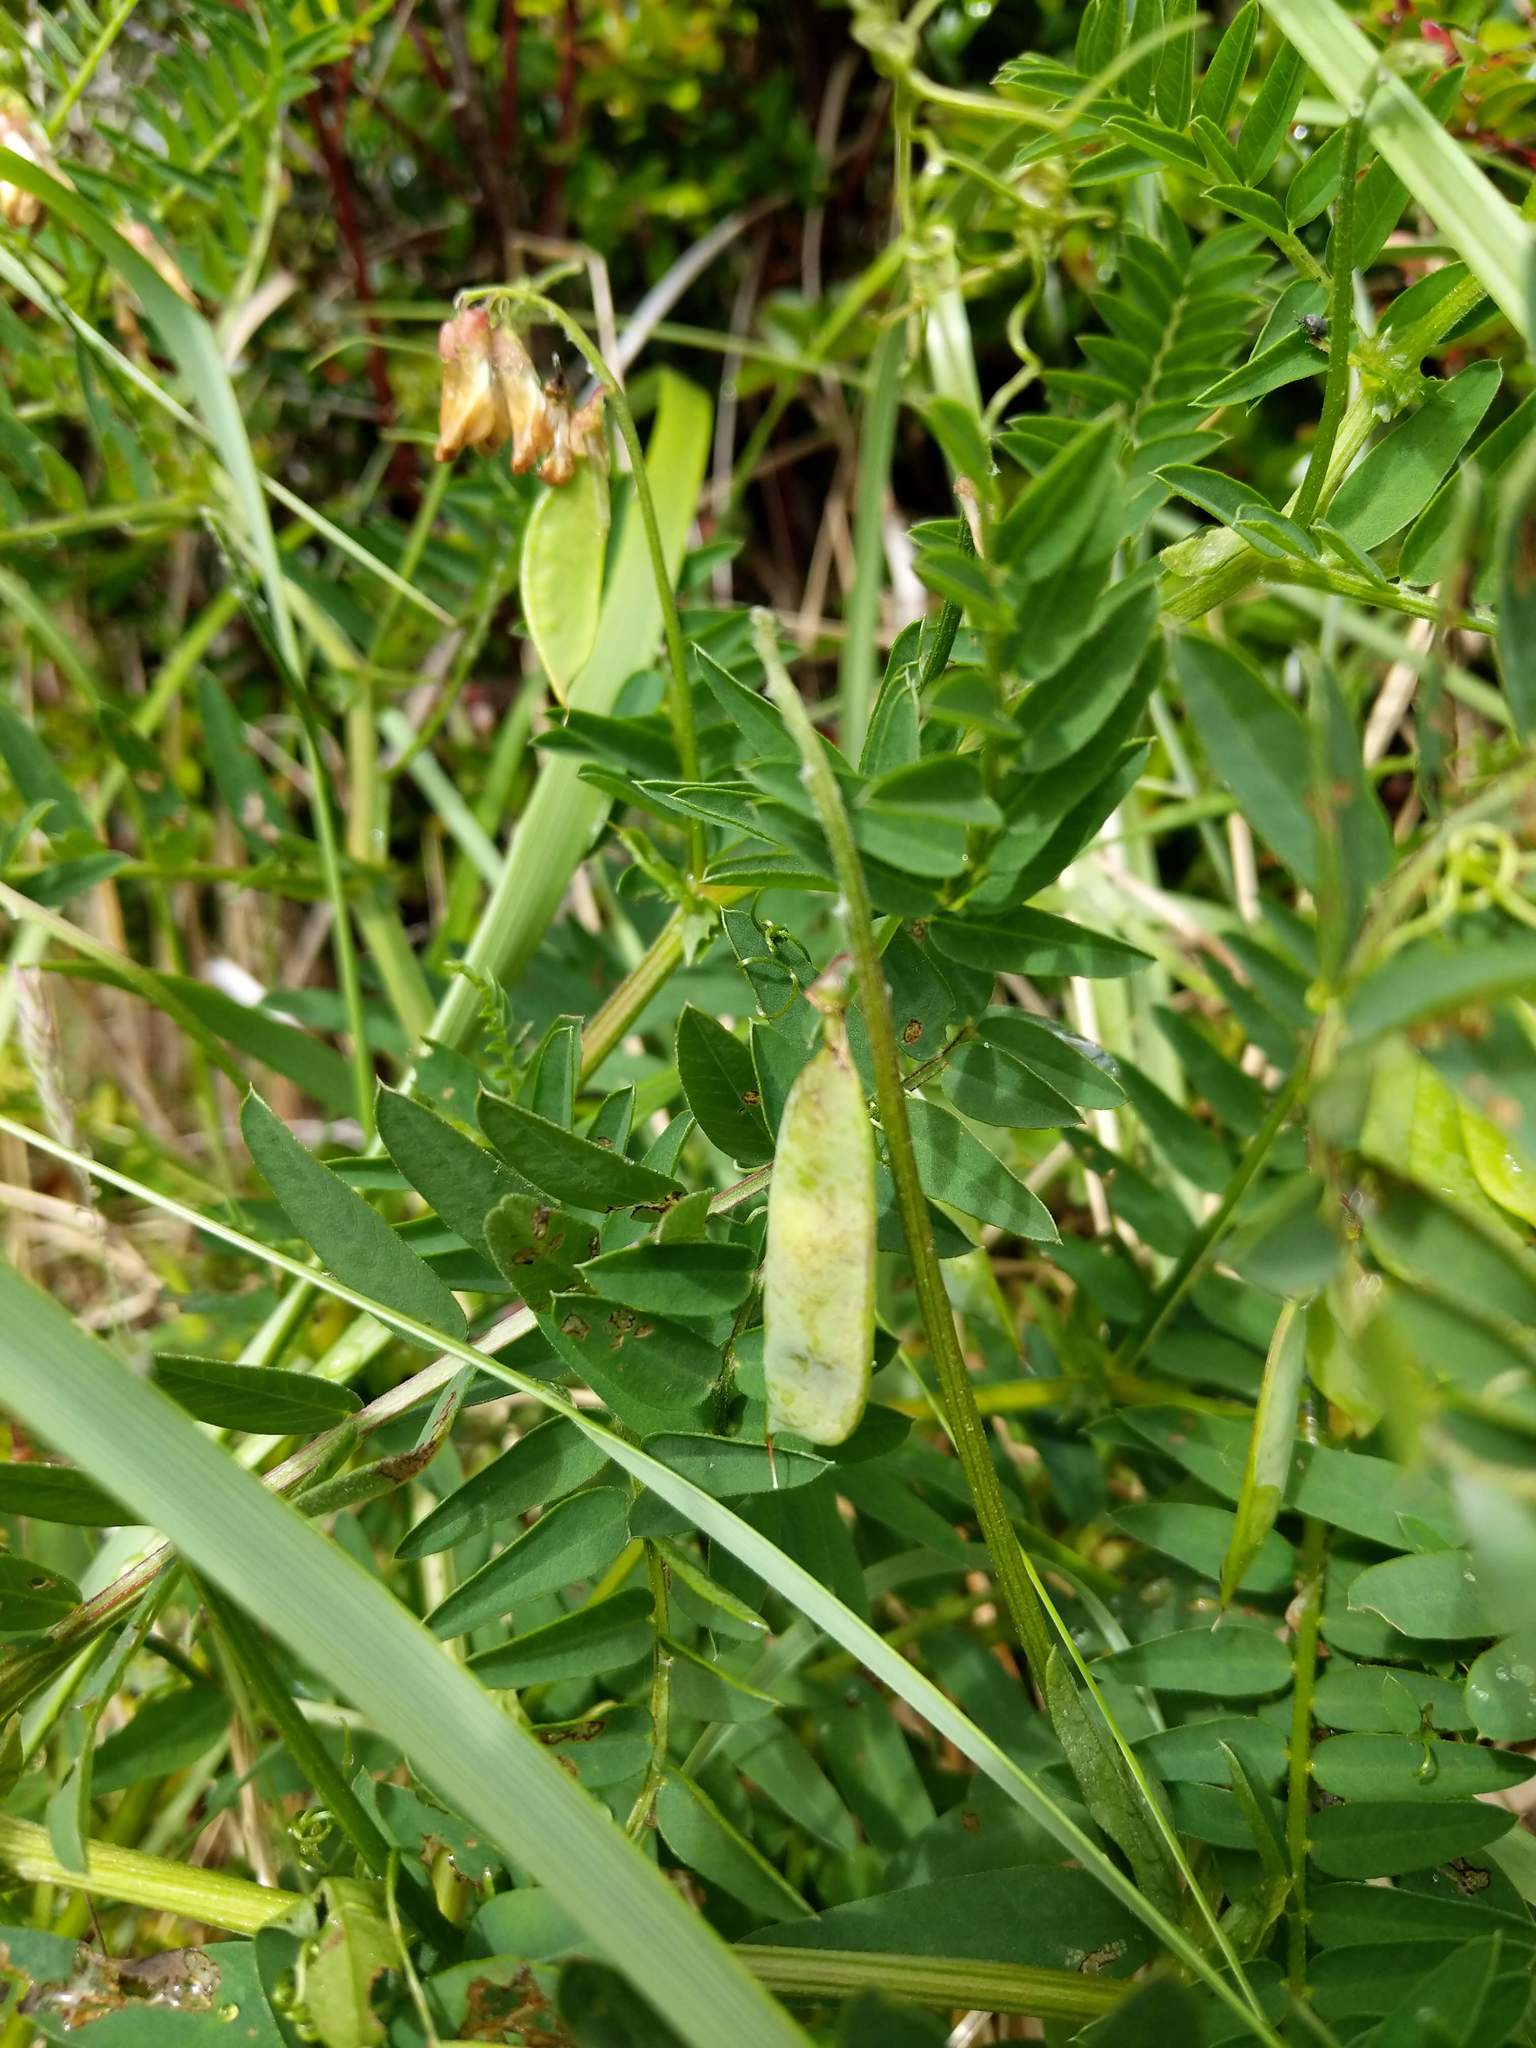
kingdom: Plantae
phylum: Tracheophyta
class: Magnoliopsida
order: Fabales
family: Fabaceae
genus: Vicia
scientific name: Vicia
